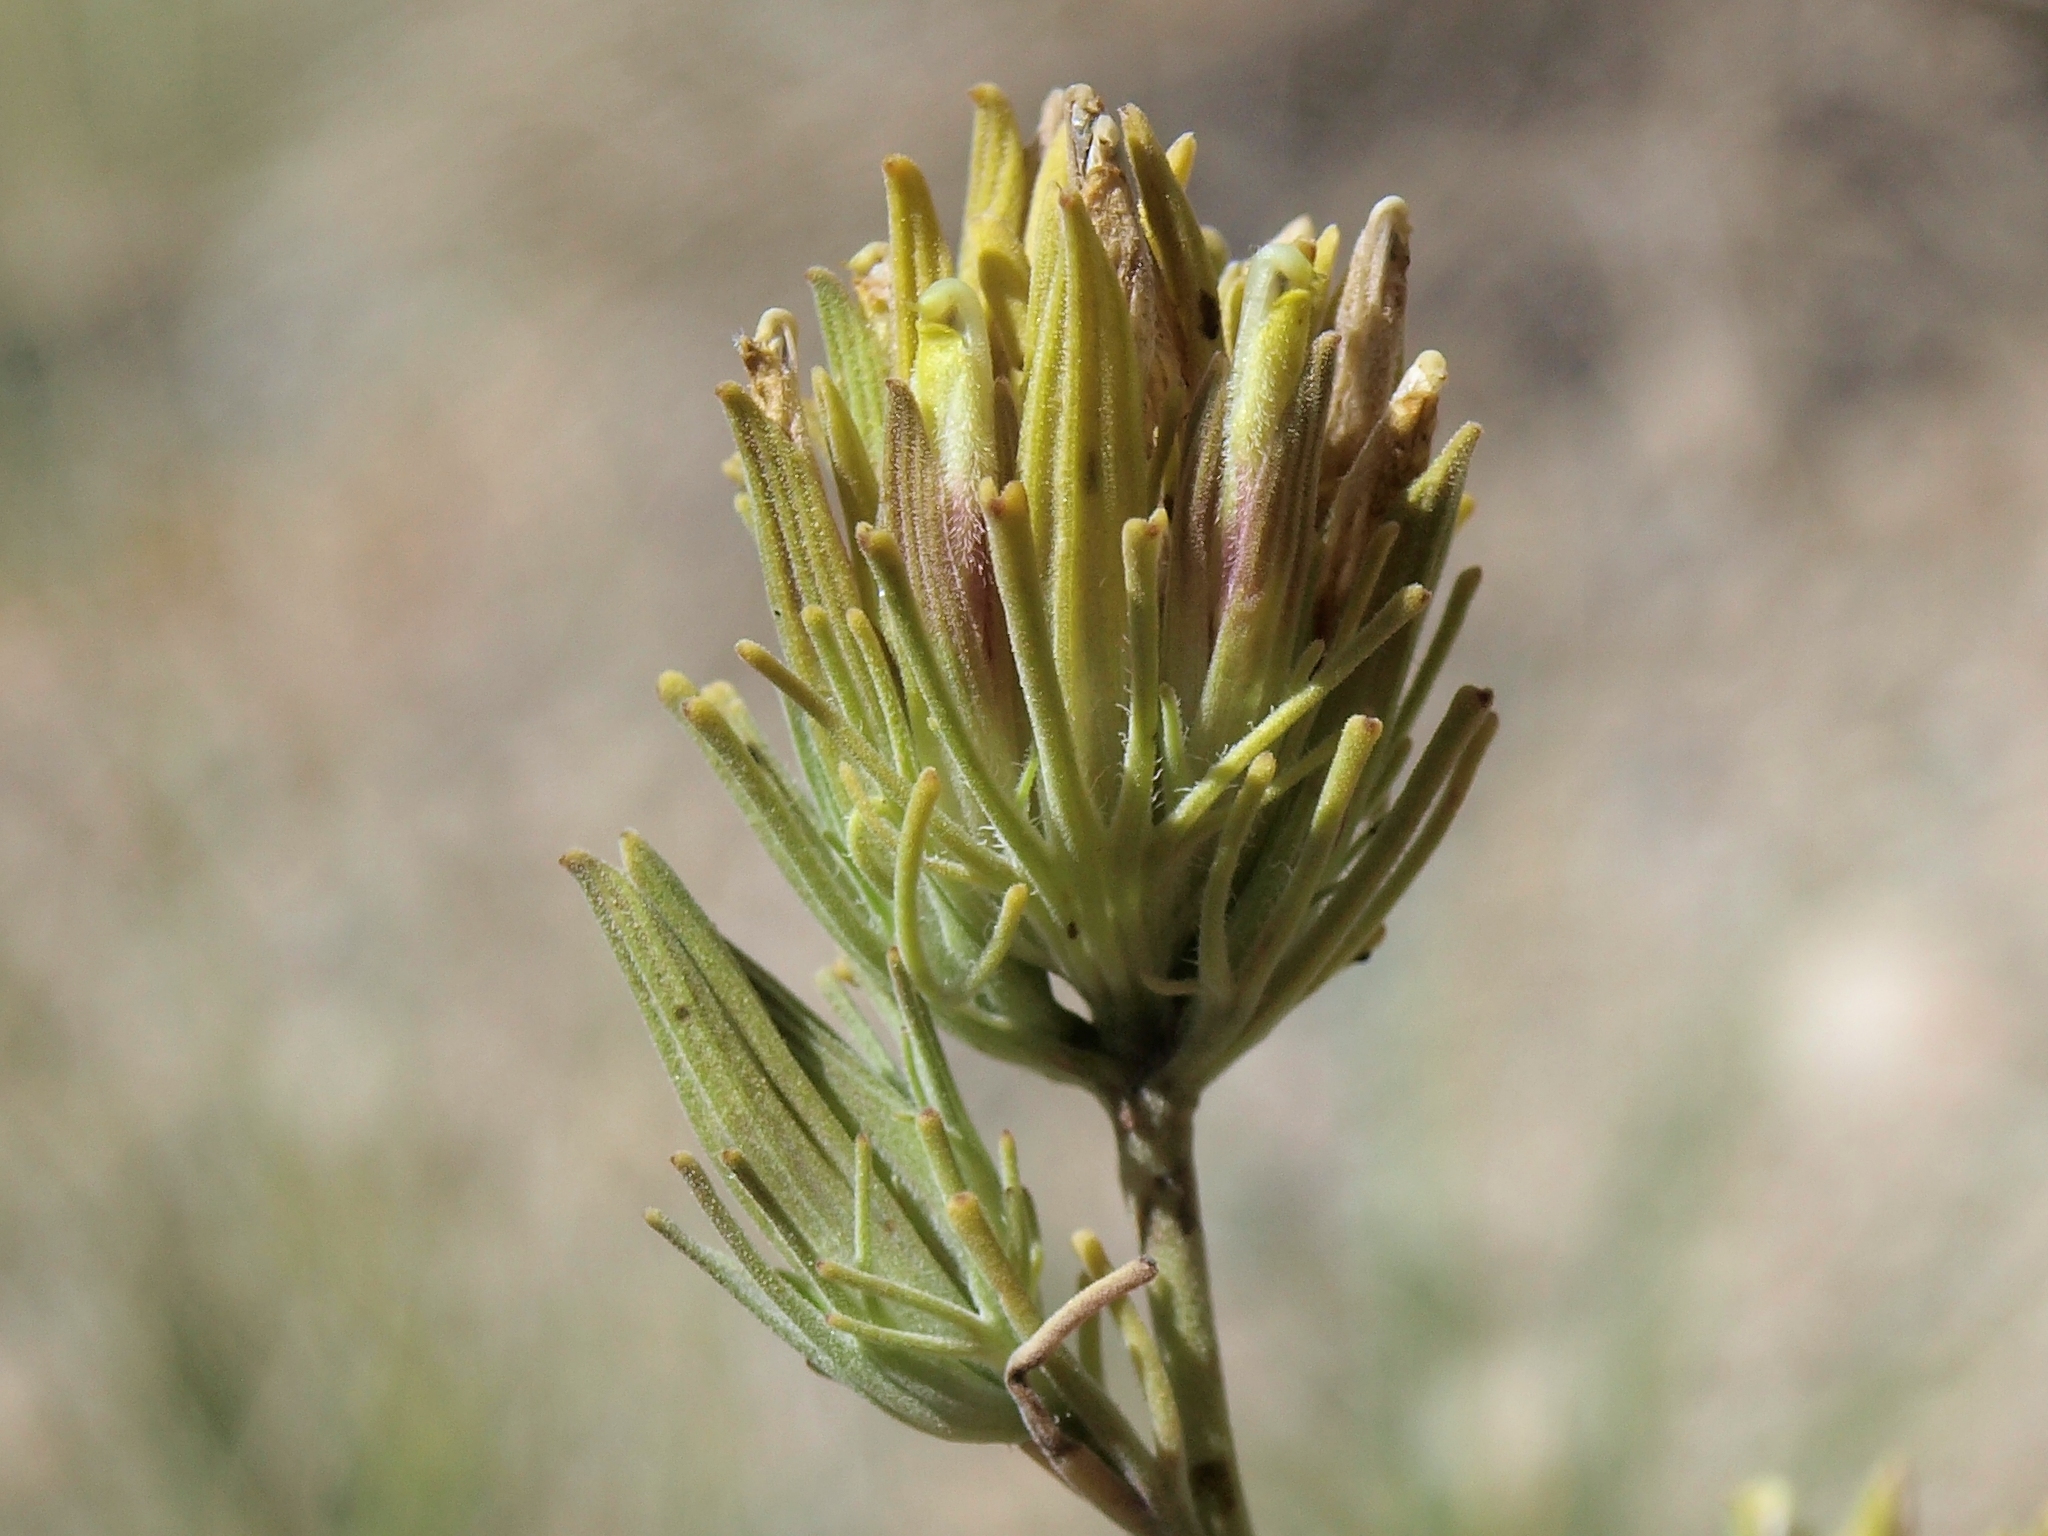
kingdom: Plantae
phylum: Tracheophyta
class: Magnoliopsida
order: Lamiales
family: Orobanchaceae
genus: Cordylanthus
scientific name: Cordylanthus ramosus
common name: Much-branched bird's-beak
